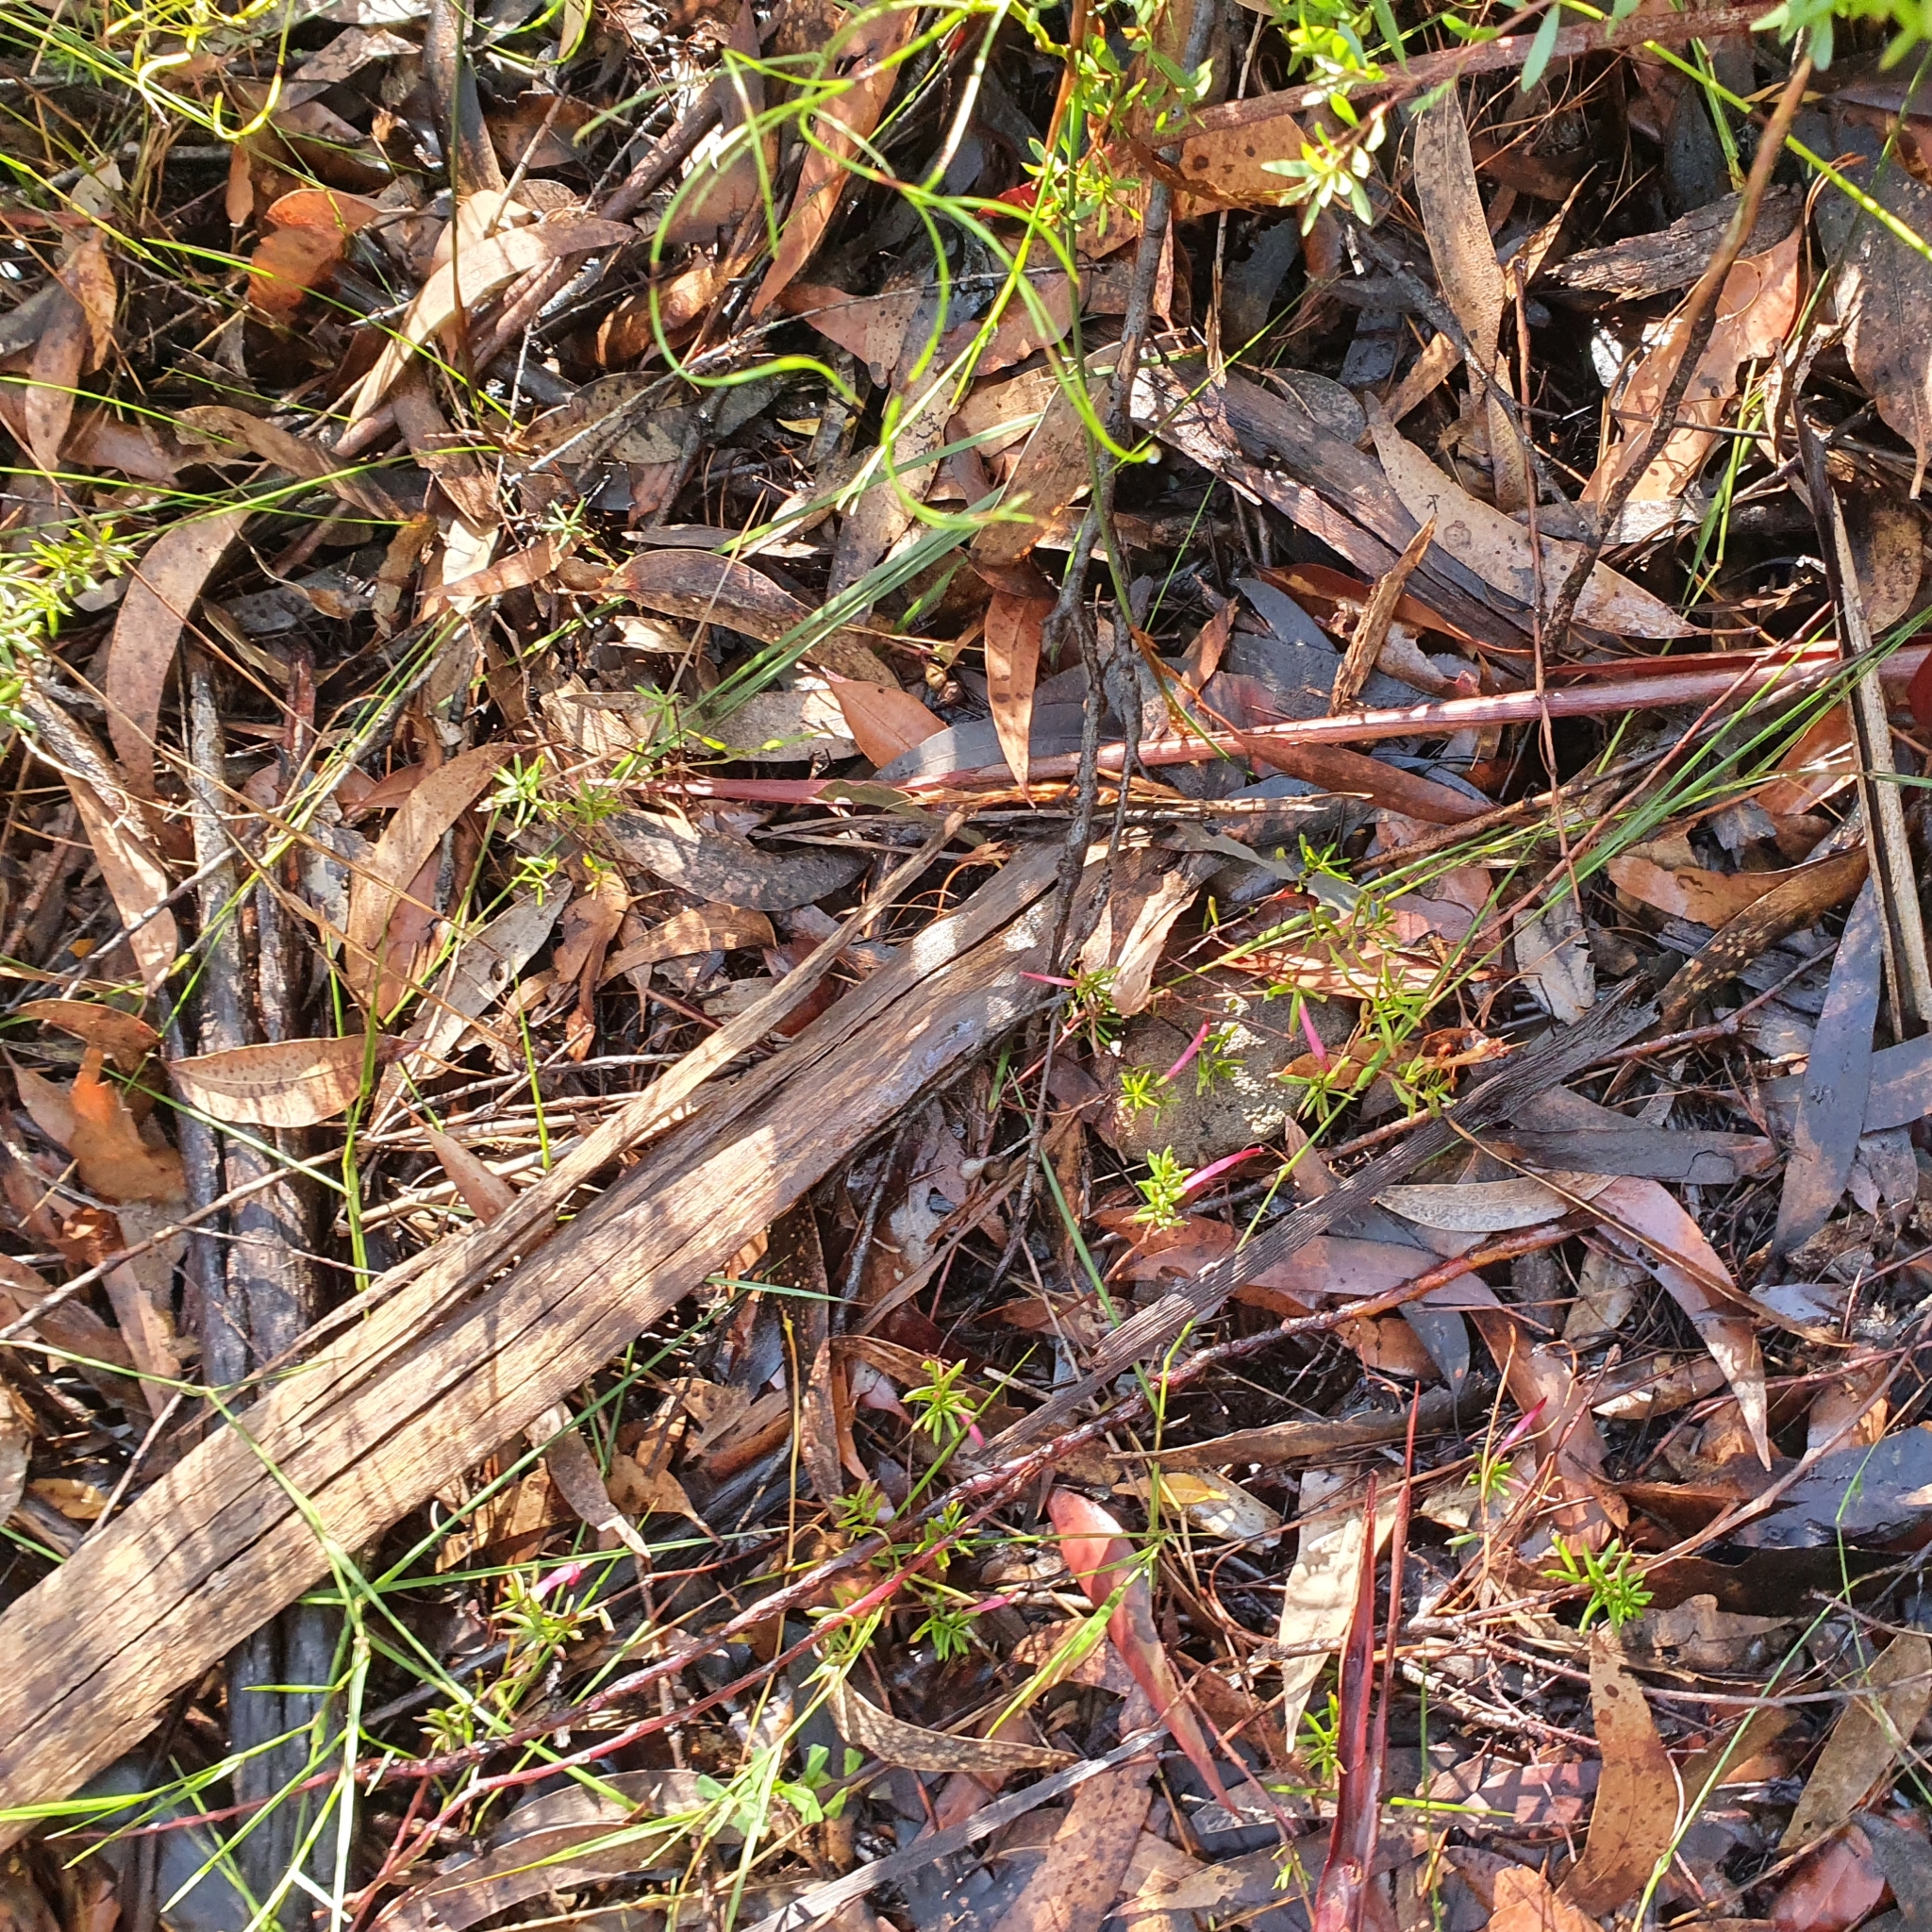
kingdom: Plantae
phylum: Tracheophyta
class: Magnoliopsida
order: Ericales
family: Ericaceae
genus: Styphelia
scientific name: Styphelia tubiflora
